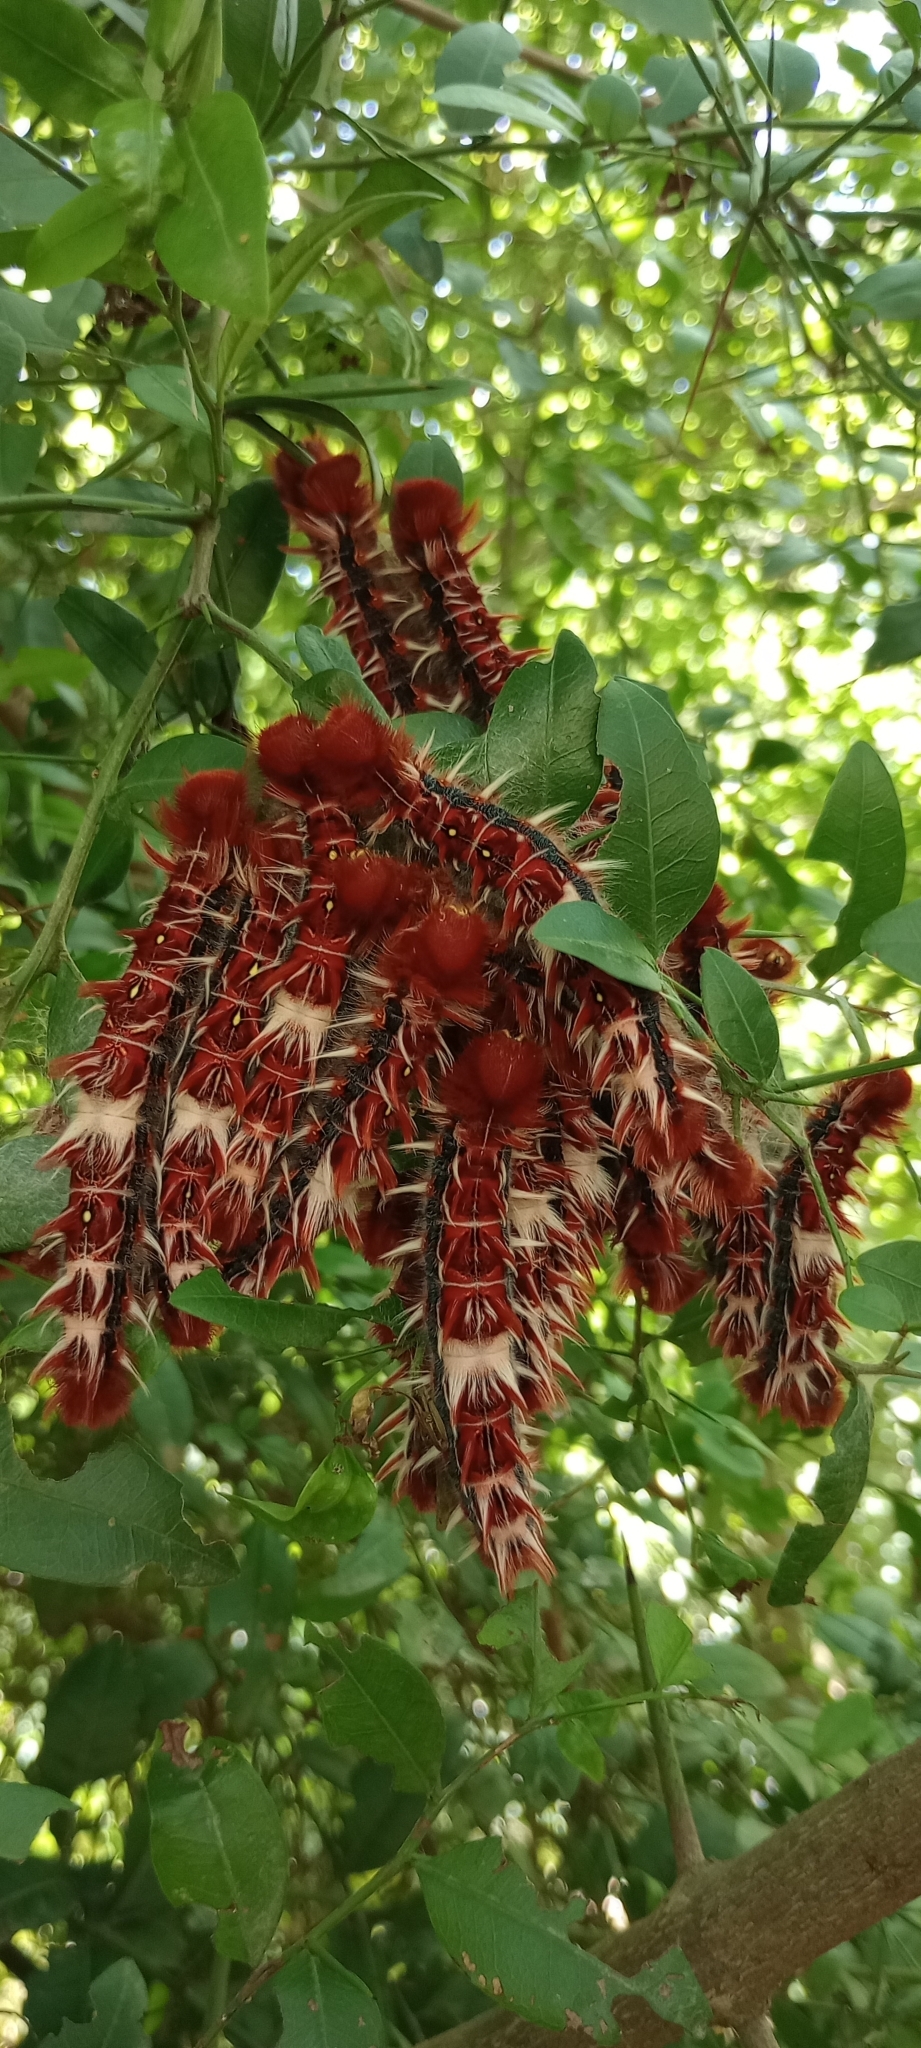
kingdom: Animalia
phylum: Arthropoda
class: Insecta
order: Lepidoptera
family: Nymphalidae
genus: Morpho
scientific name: Morpho epistrophus
